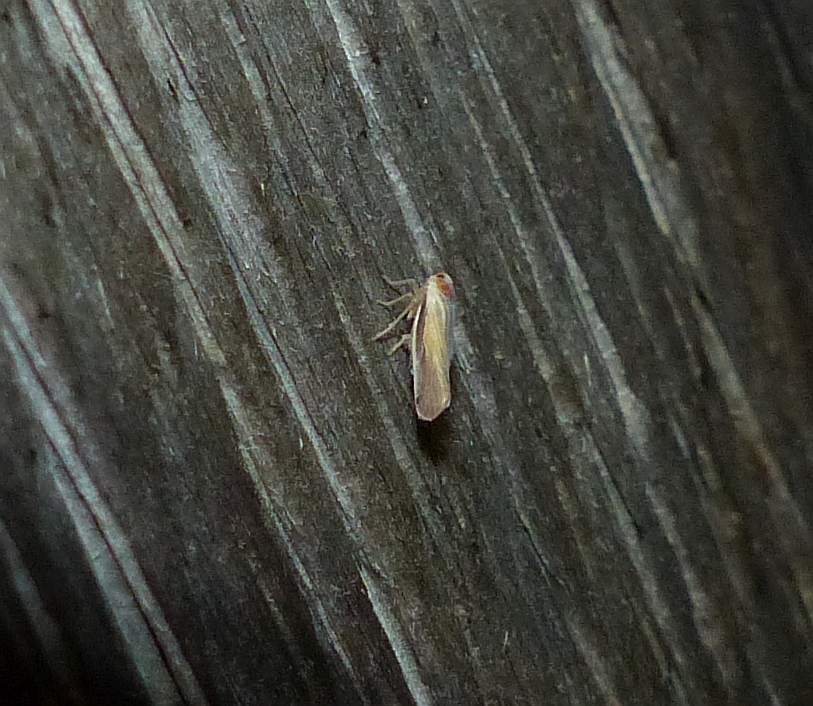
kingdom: Animalia
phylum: Arthropoda
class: Insecta
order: Hemiptera
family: Derbidae
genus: Omolicna
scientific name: Omolicna uhleri
